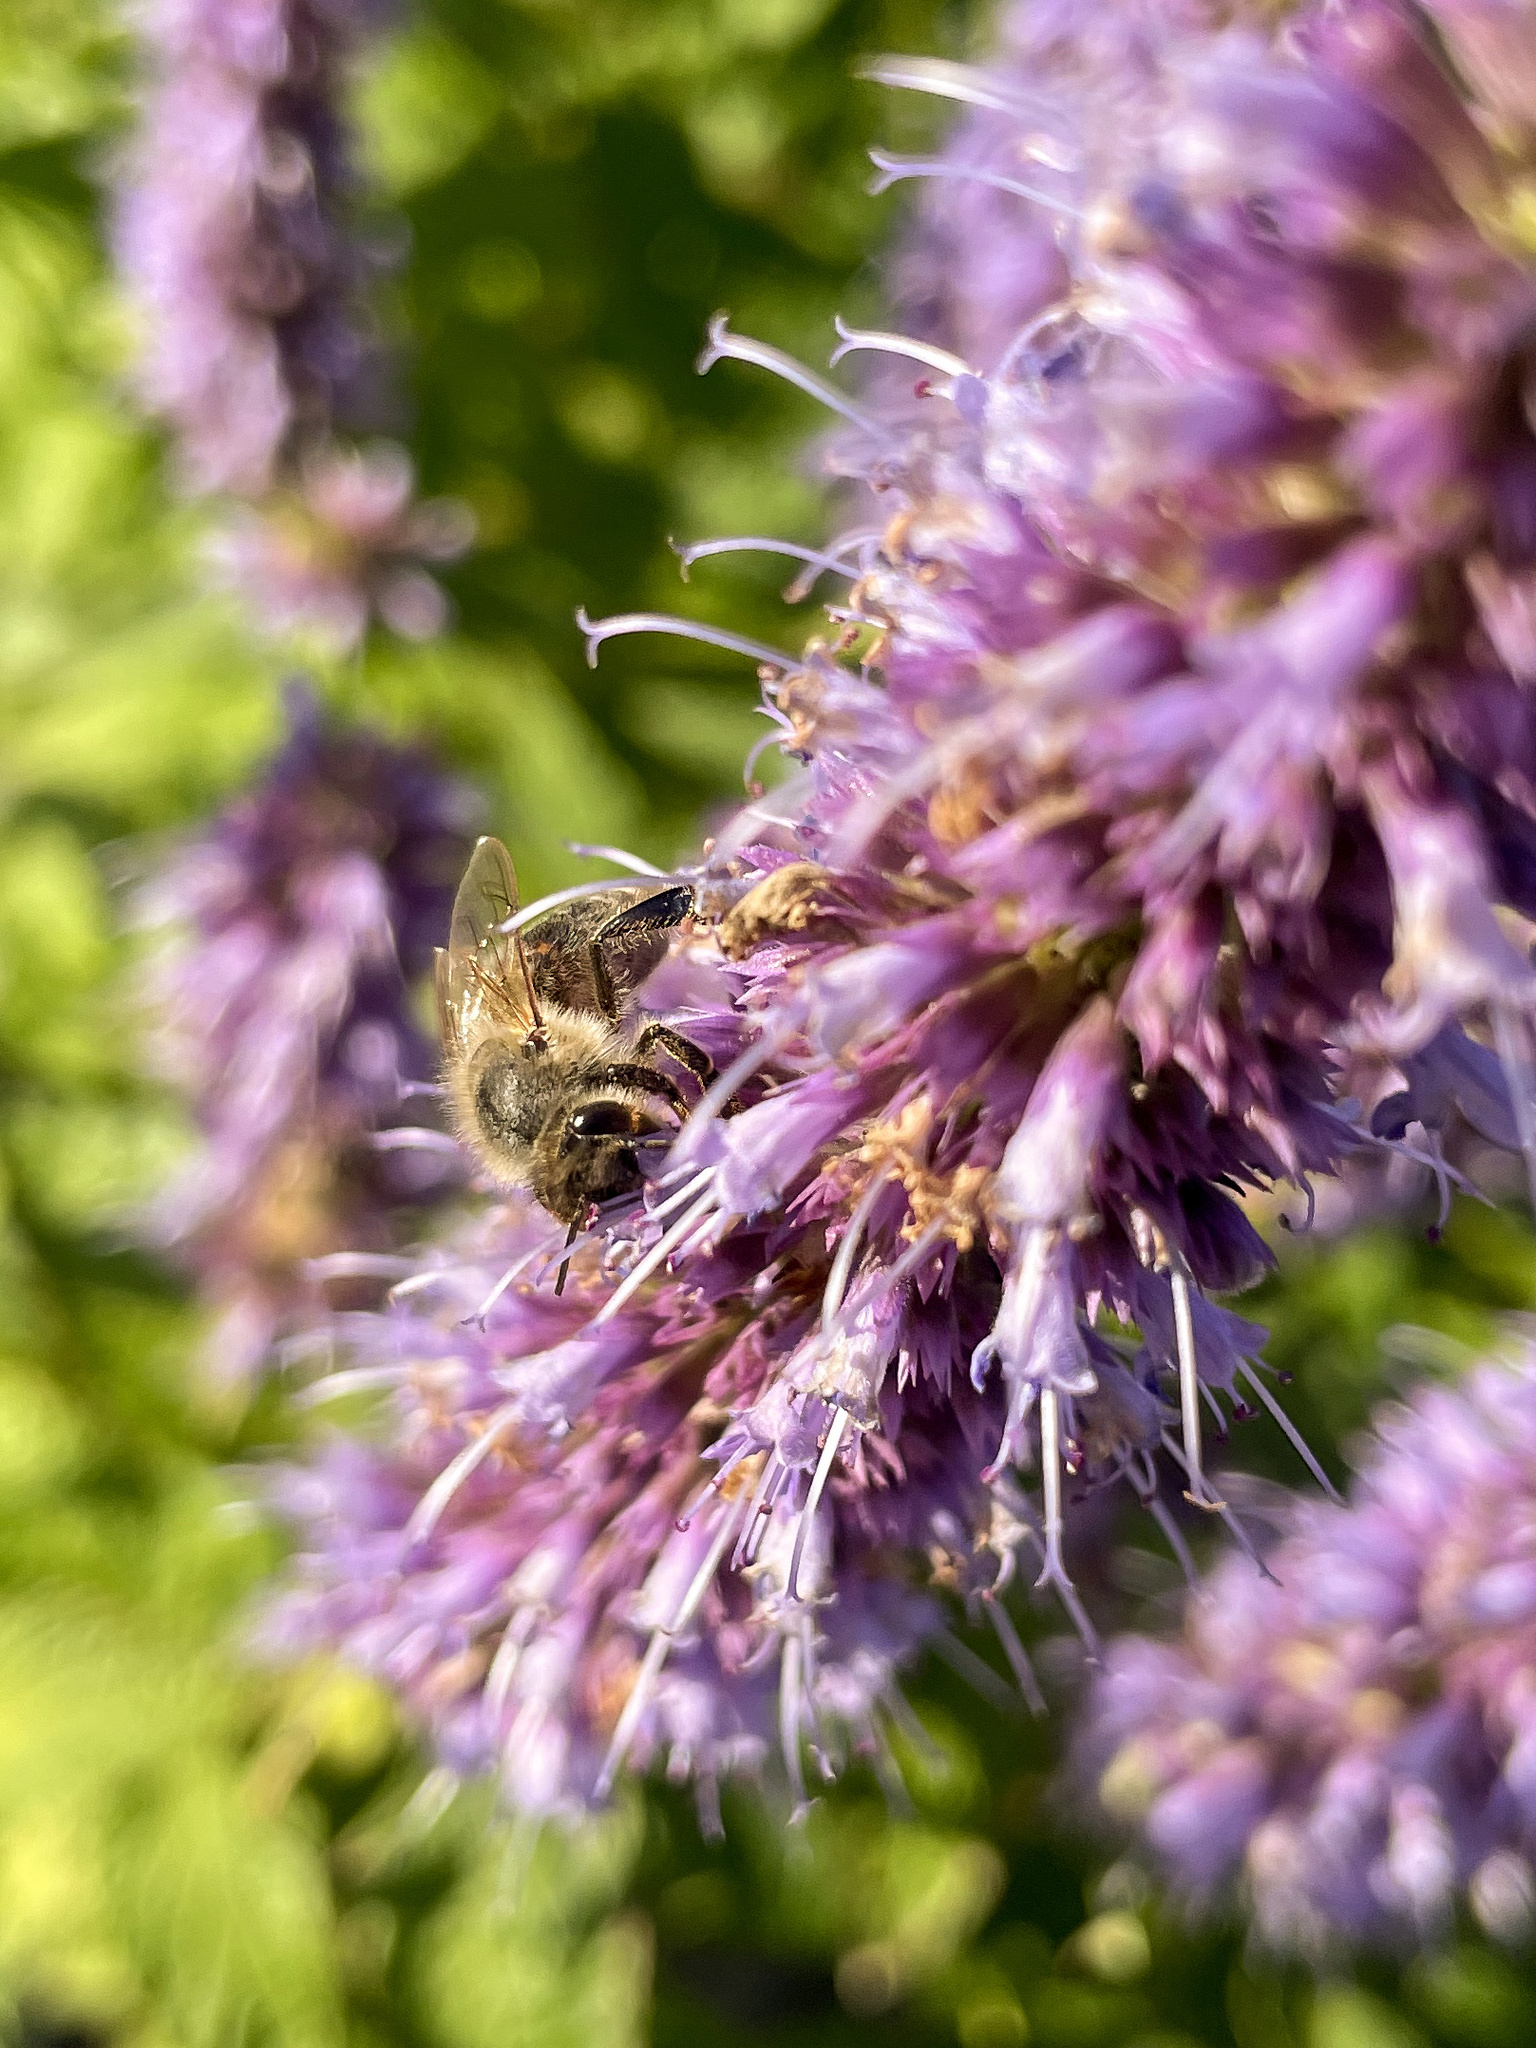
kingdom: Animalia
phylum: Arthropoda
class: Insecta
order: Hymenoptera
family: Apidae
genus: Apis
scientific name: Apis mellifera
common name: Honey bee
